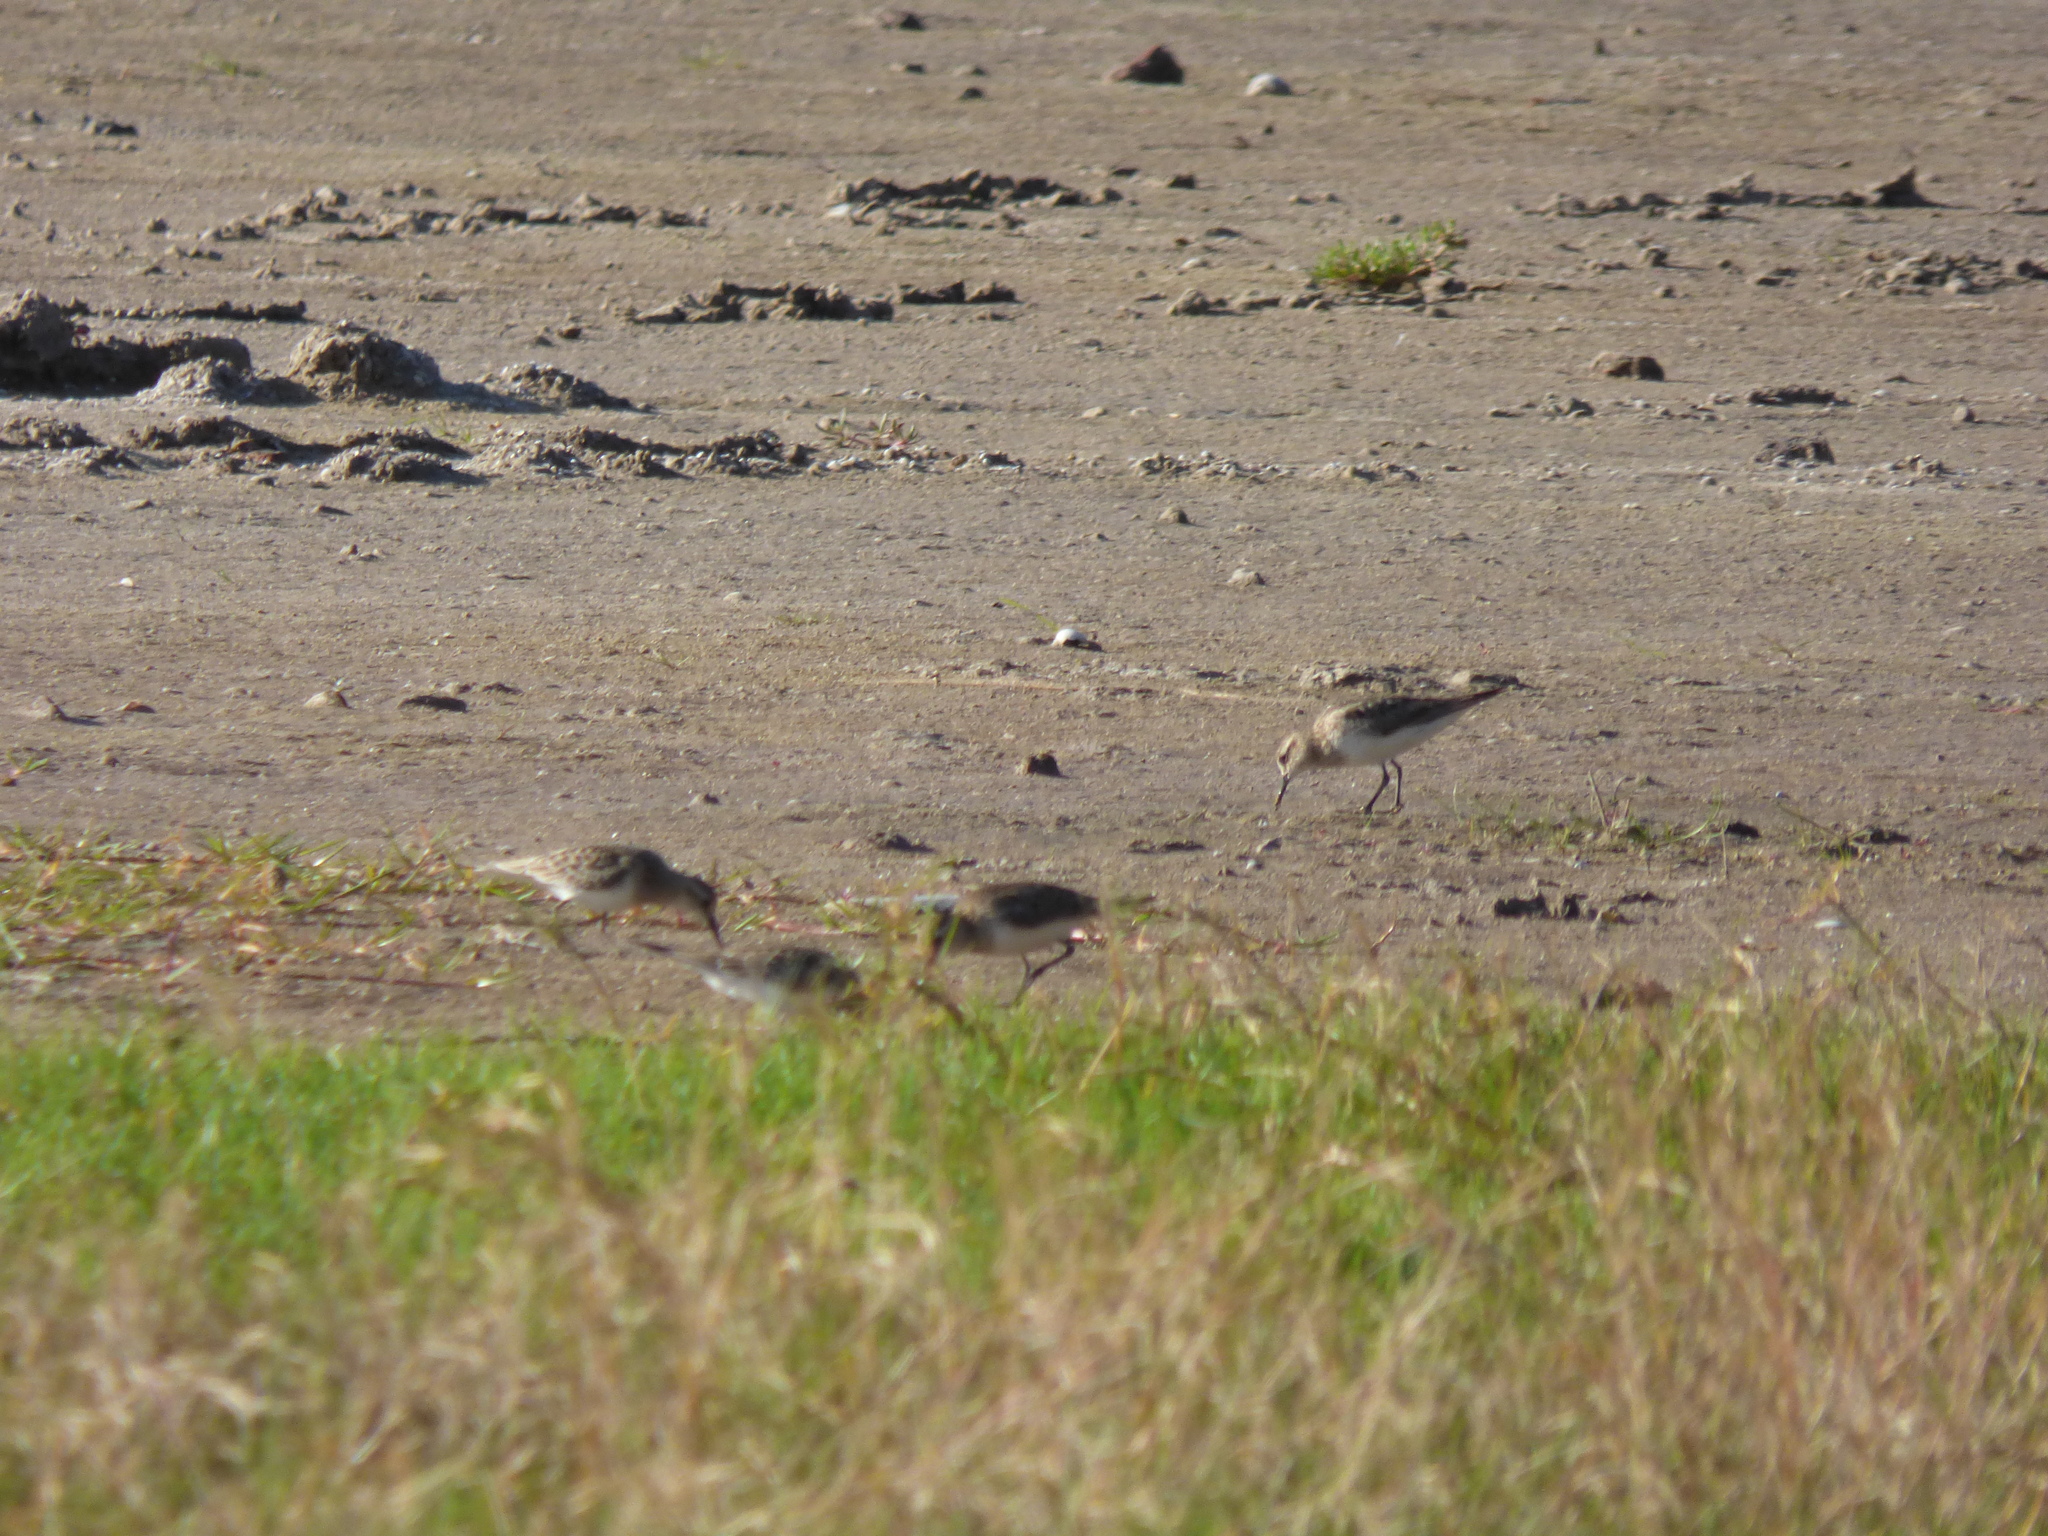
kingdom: Animalia
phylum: Chordata
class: Aves
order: Charadriiformes
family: Scolopacidae
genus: Calidris
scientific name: Calidris bairdii
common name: Baird's sandpiper
